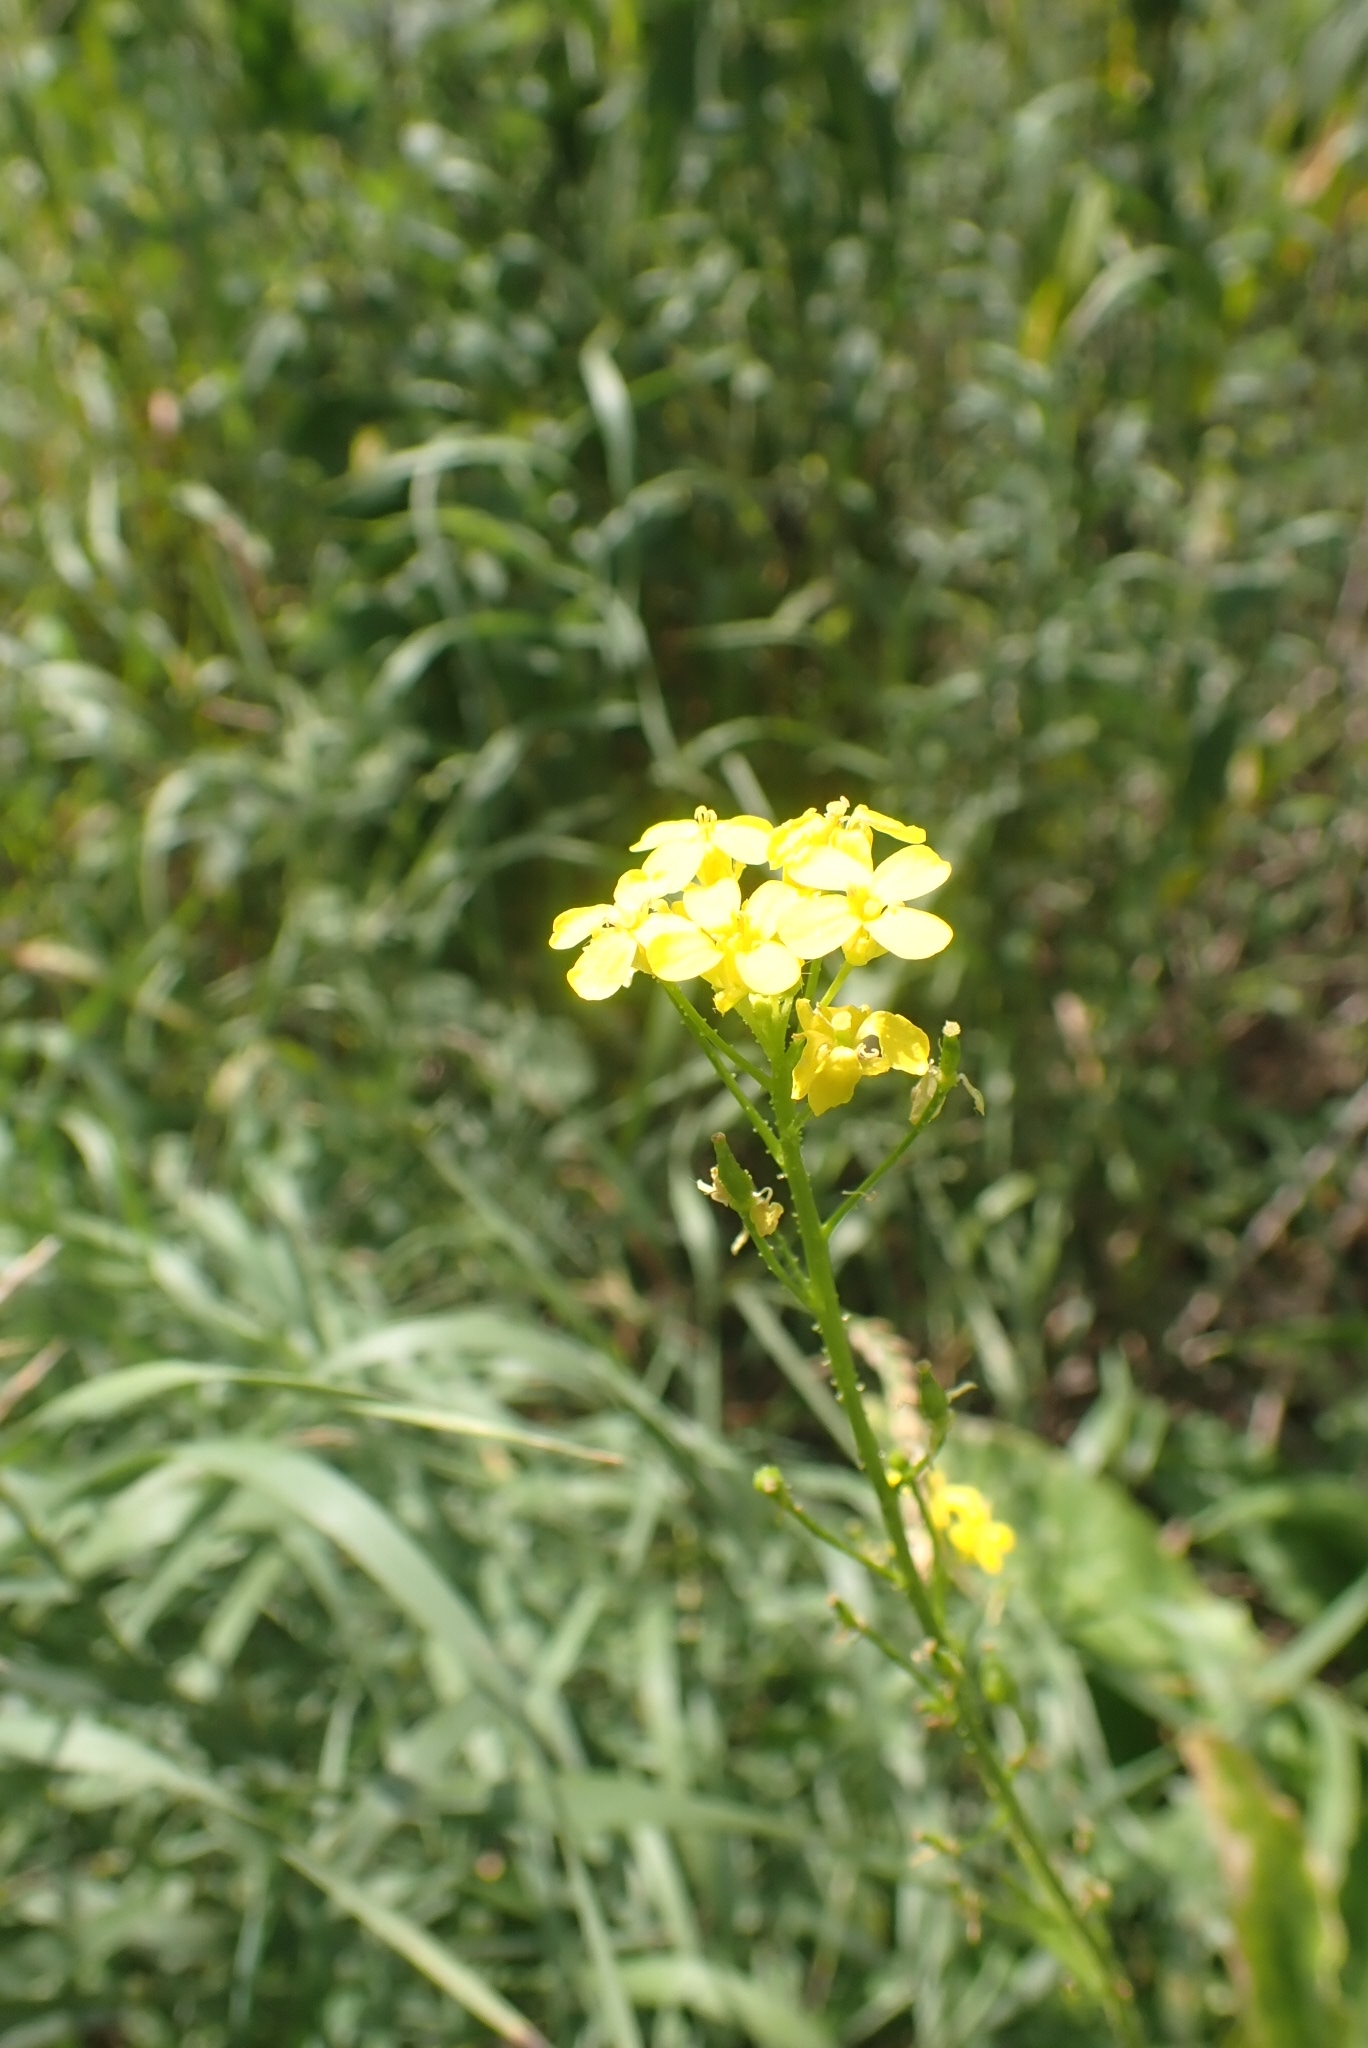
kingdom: Plantae
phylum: Tracheophyta
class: Magnoliopsida
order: Brassicales
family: Brassicaceae
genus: Bunias
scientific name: Bunias orientalis
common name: Warty-cabbage
